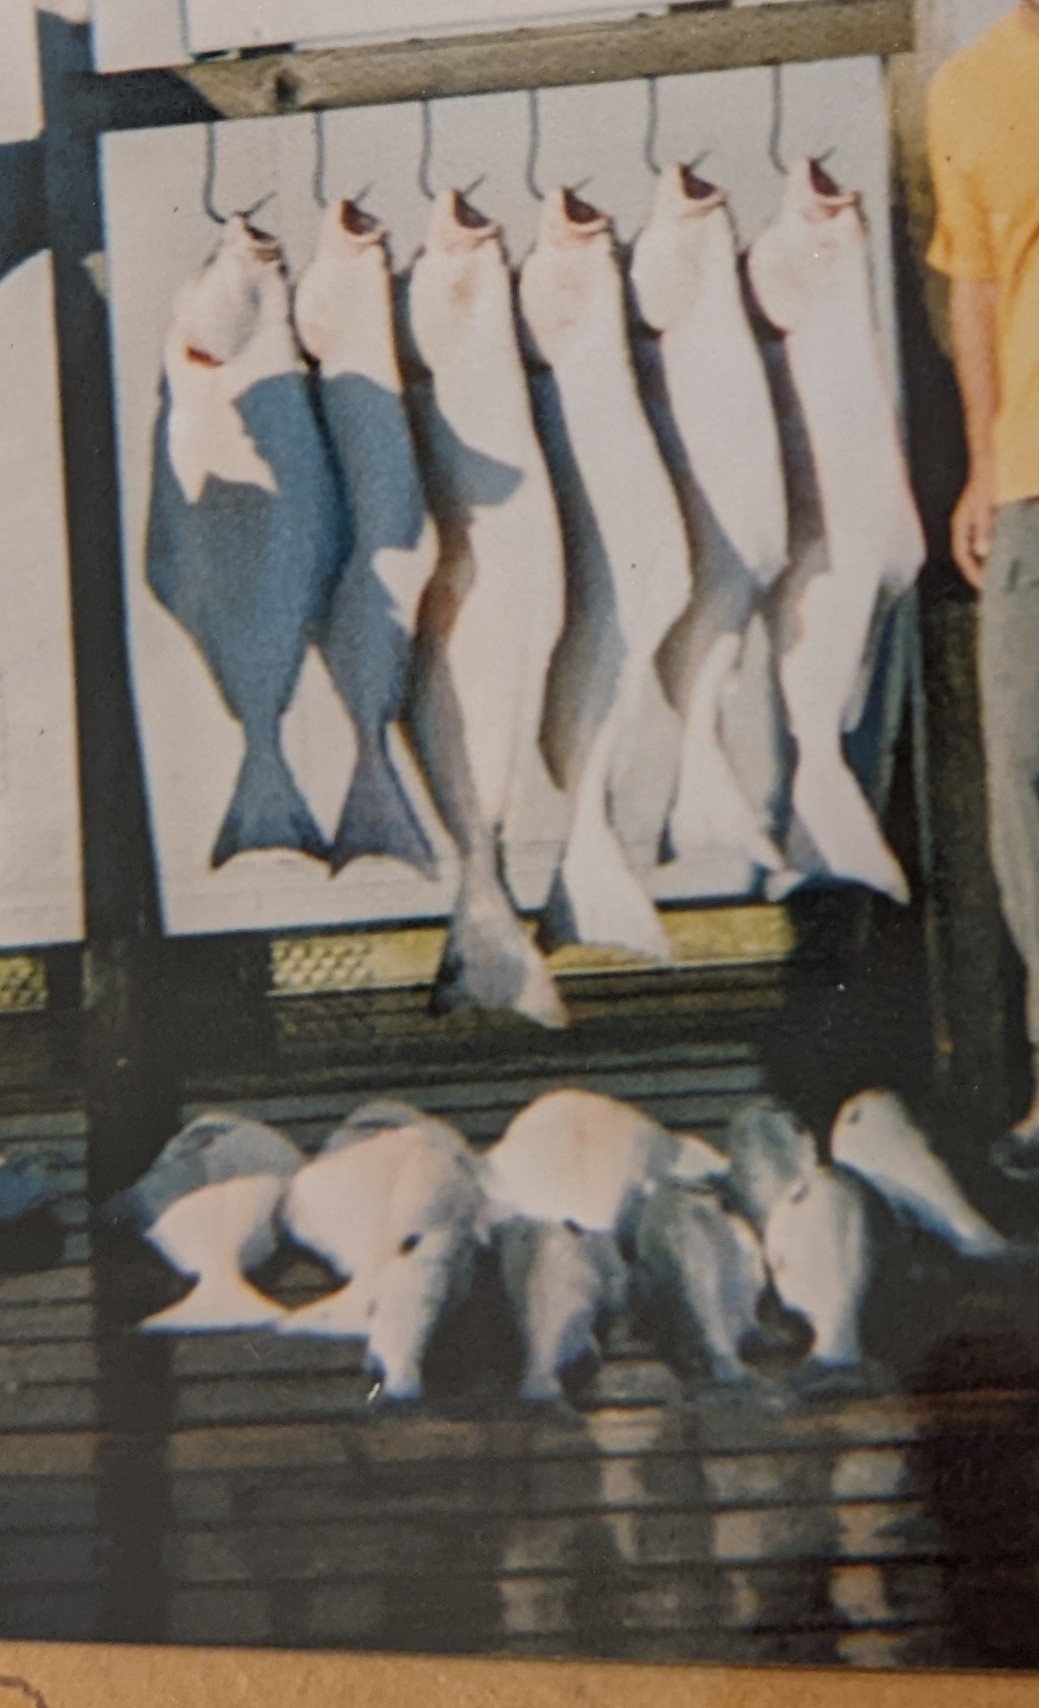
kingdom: Animalia
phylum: Chordata
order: Pleuronectiformes
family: Pleuronectidae
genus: Hippoglossus
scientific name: Hippoglossus stenolepis
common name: Pacific halibut
